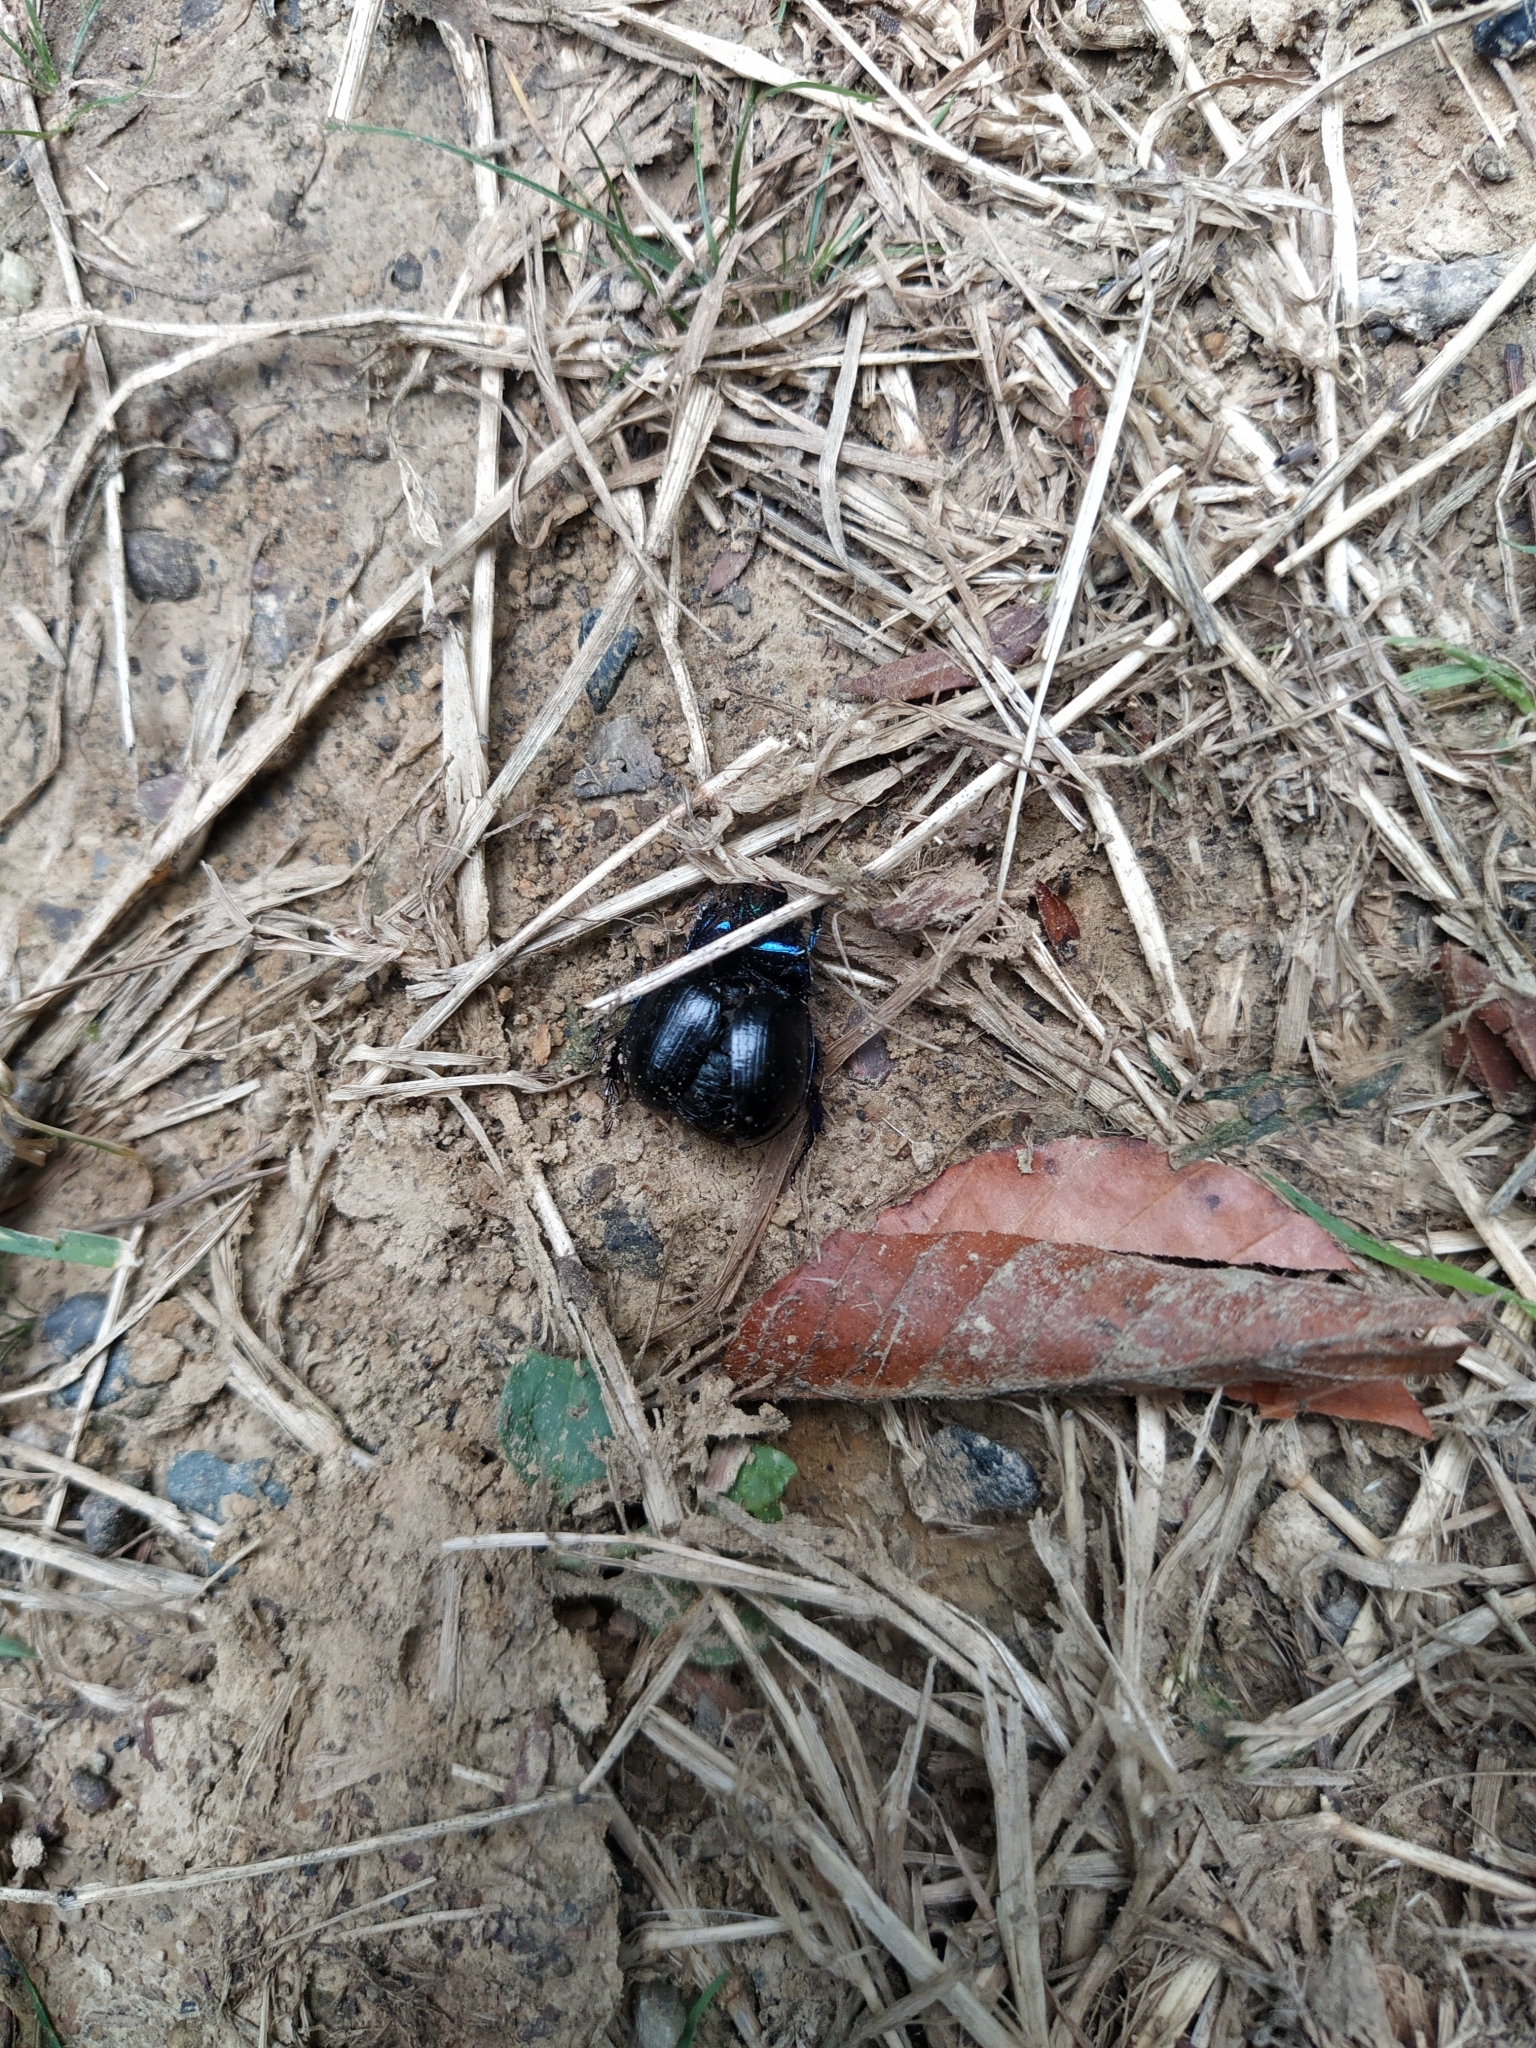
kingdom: Animalia
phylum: Arthropoda
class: Insecta
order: Coleoptera
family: Geotrupidae
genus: Anoplotrupes
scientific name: Anoplotrupes stercorosus
